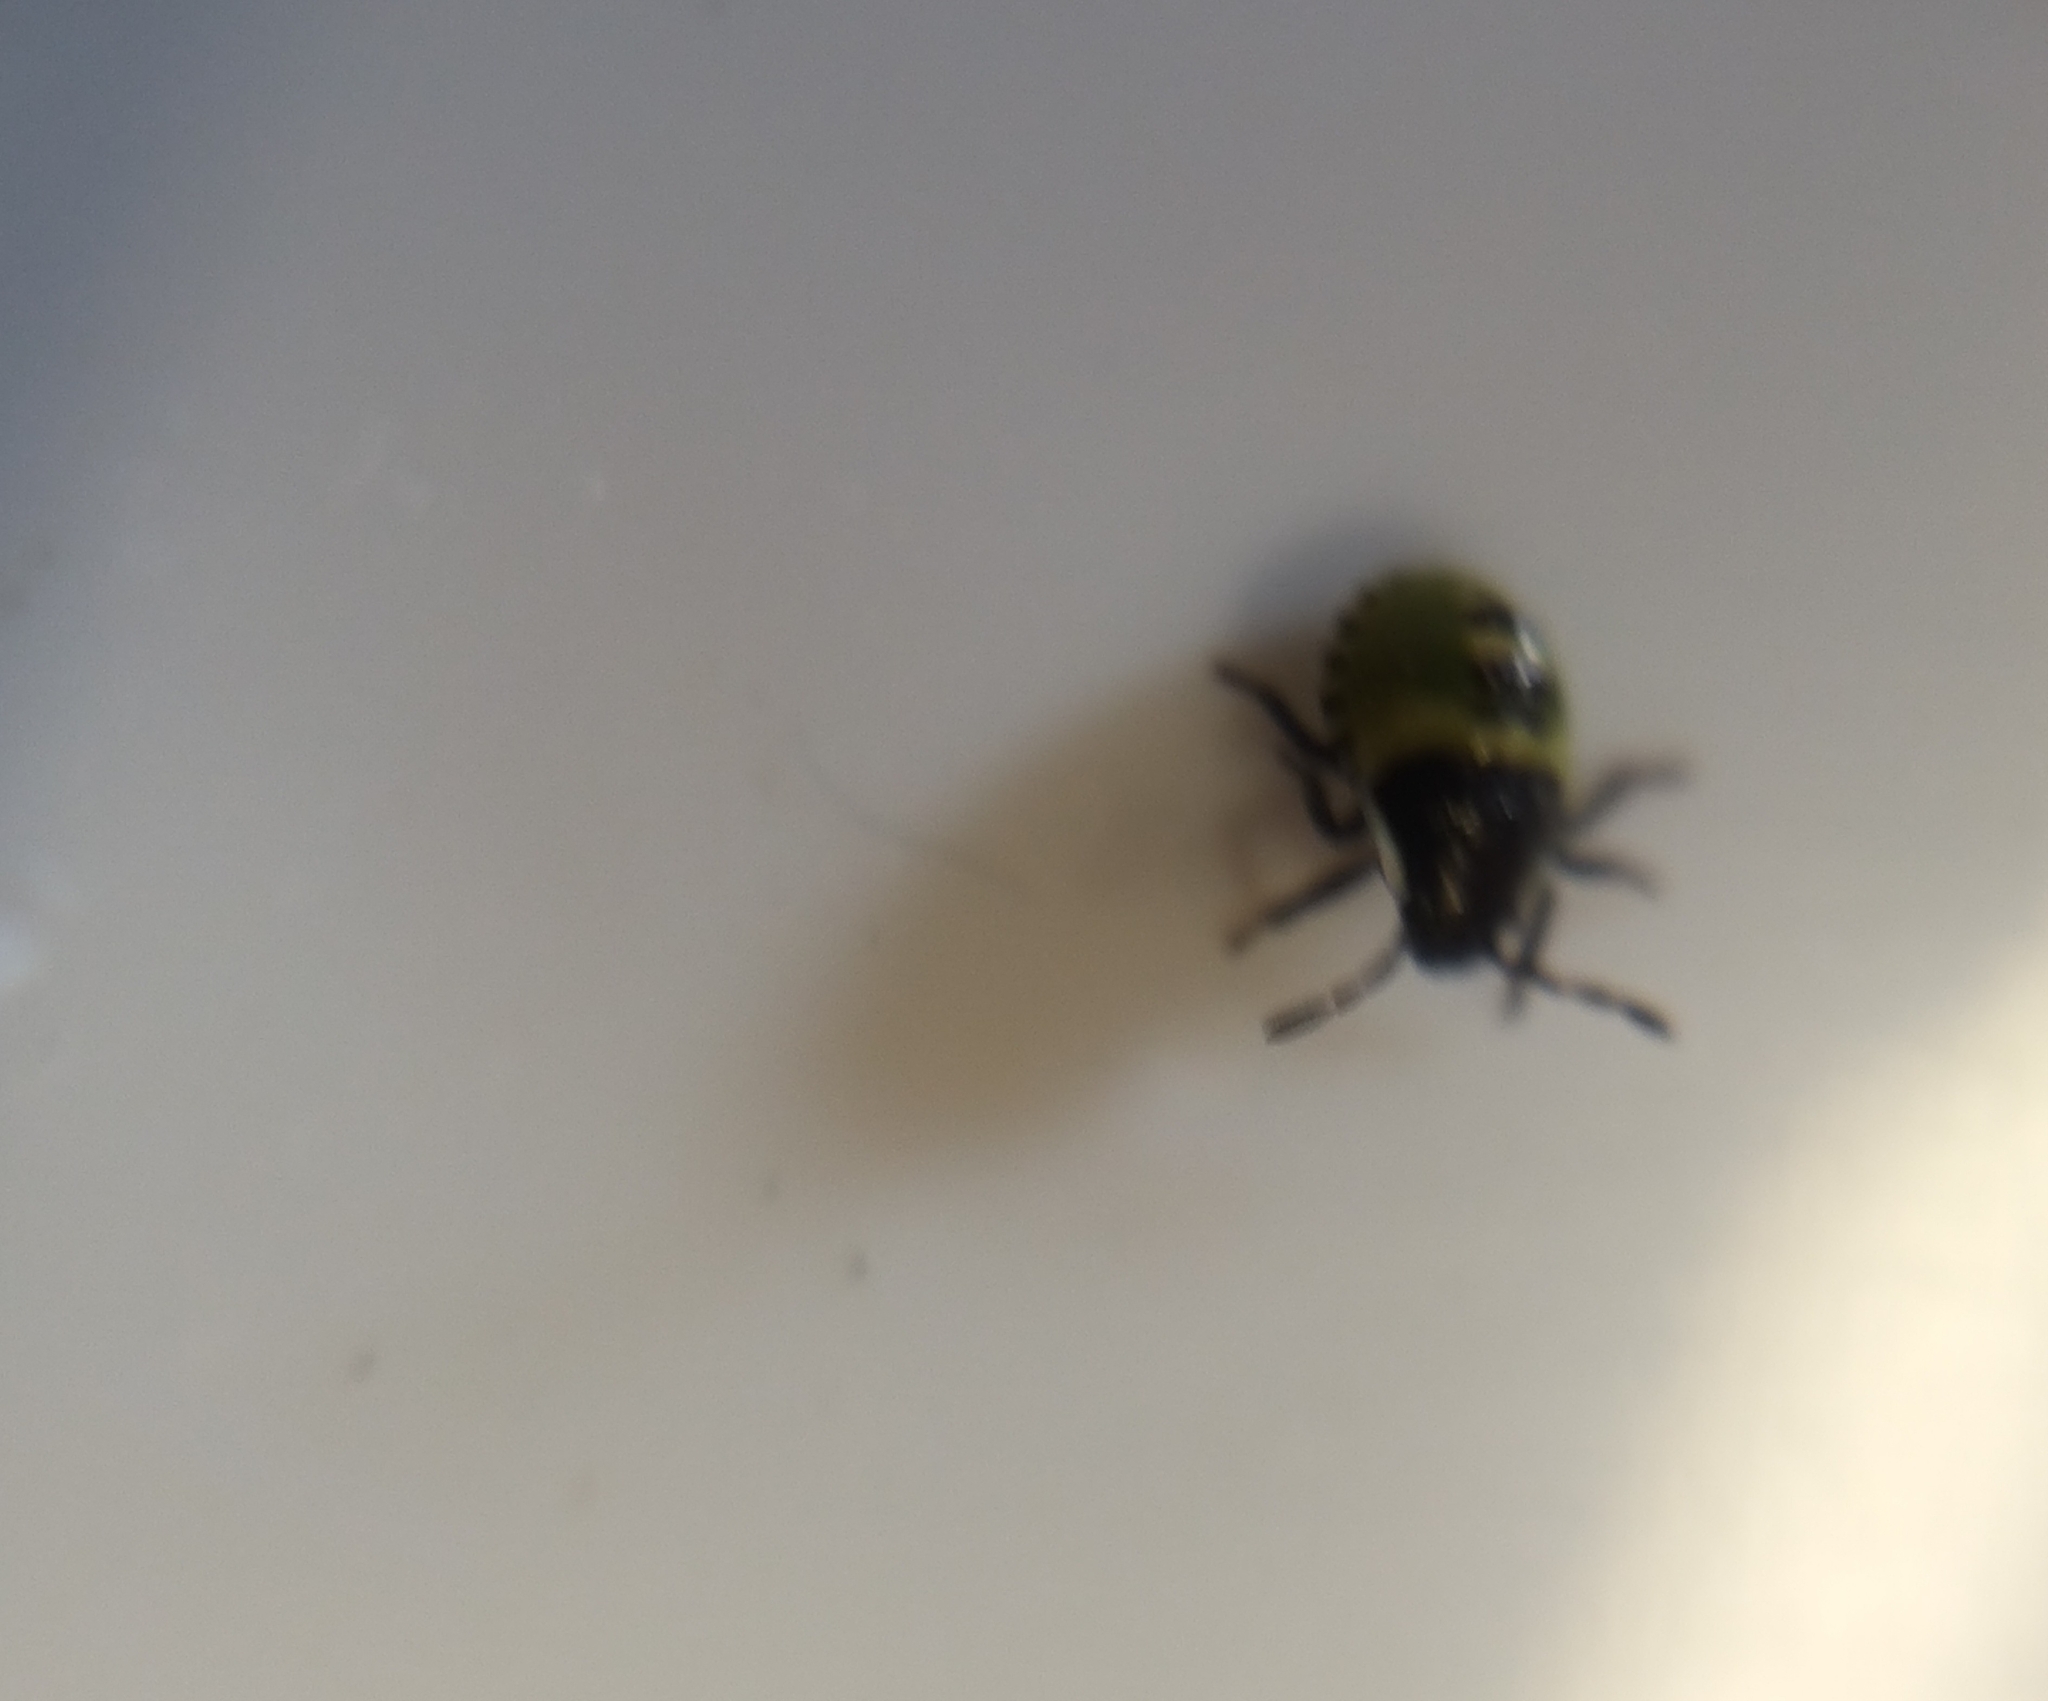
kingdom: Animalia
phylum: Arthropoda
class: Insecta
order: Hemiptera
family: Pentatomidae
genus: Palomena
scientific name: Palomena prasina
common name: Green shieldbug
